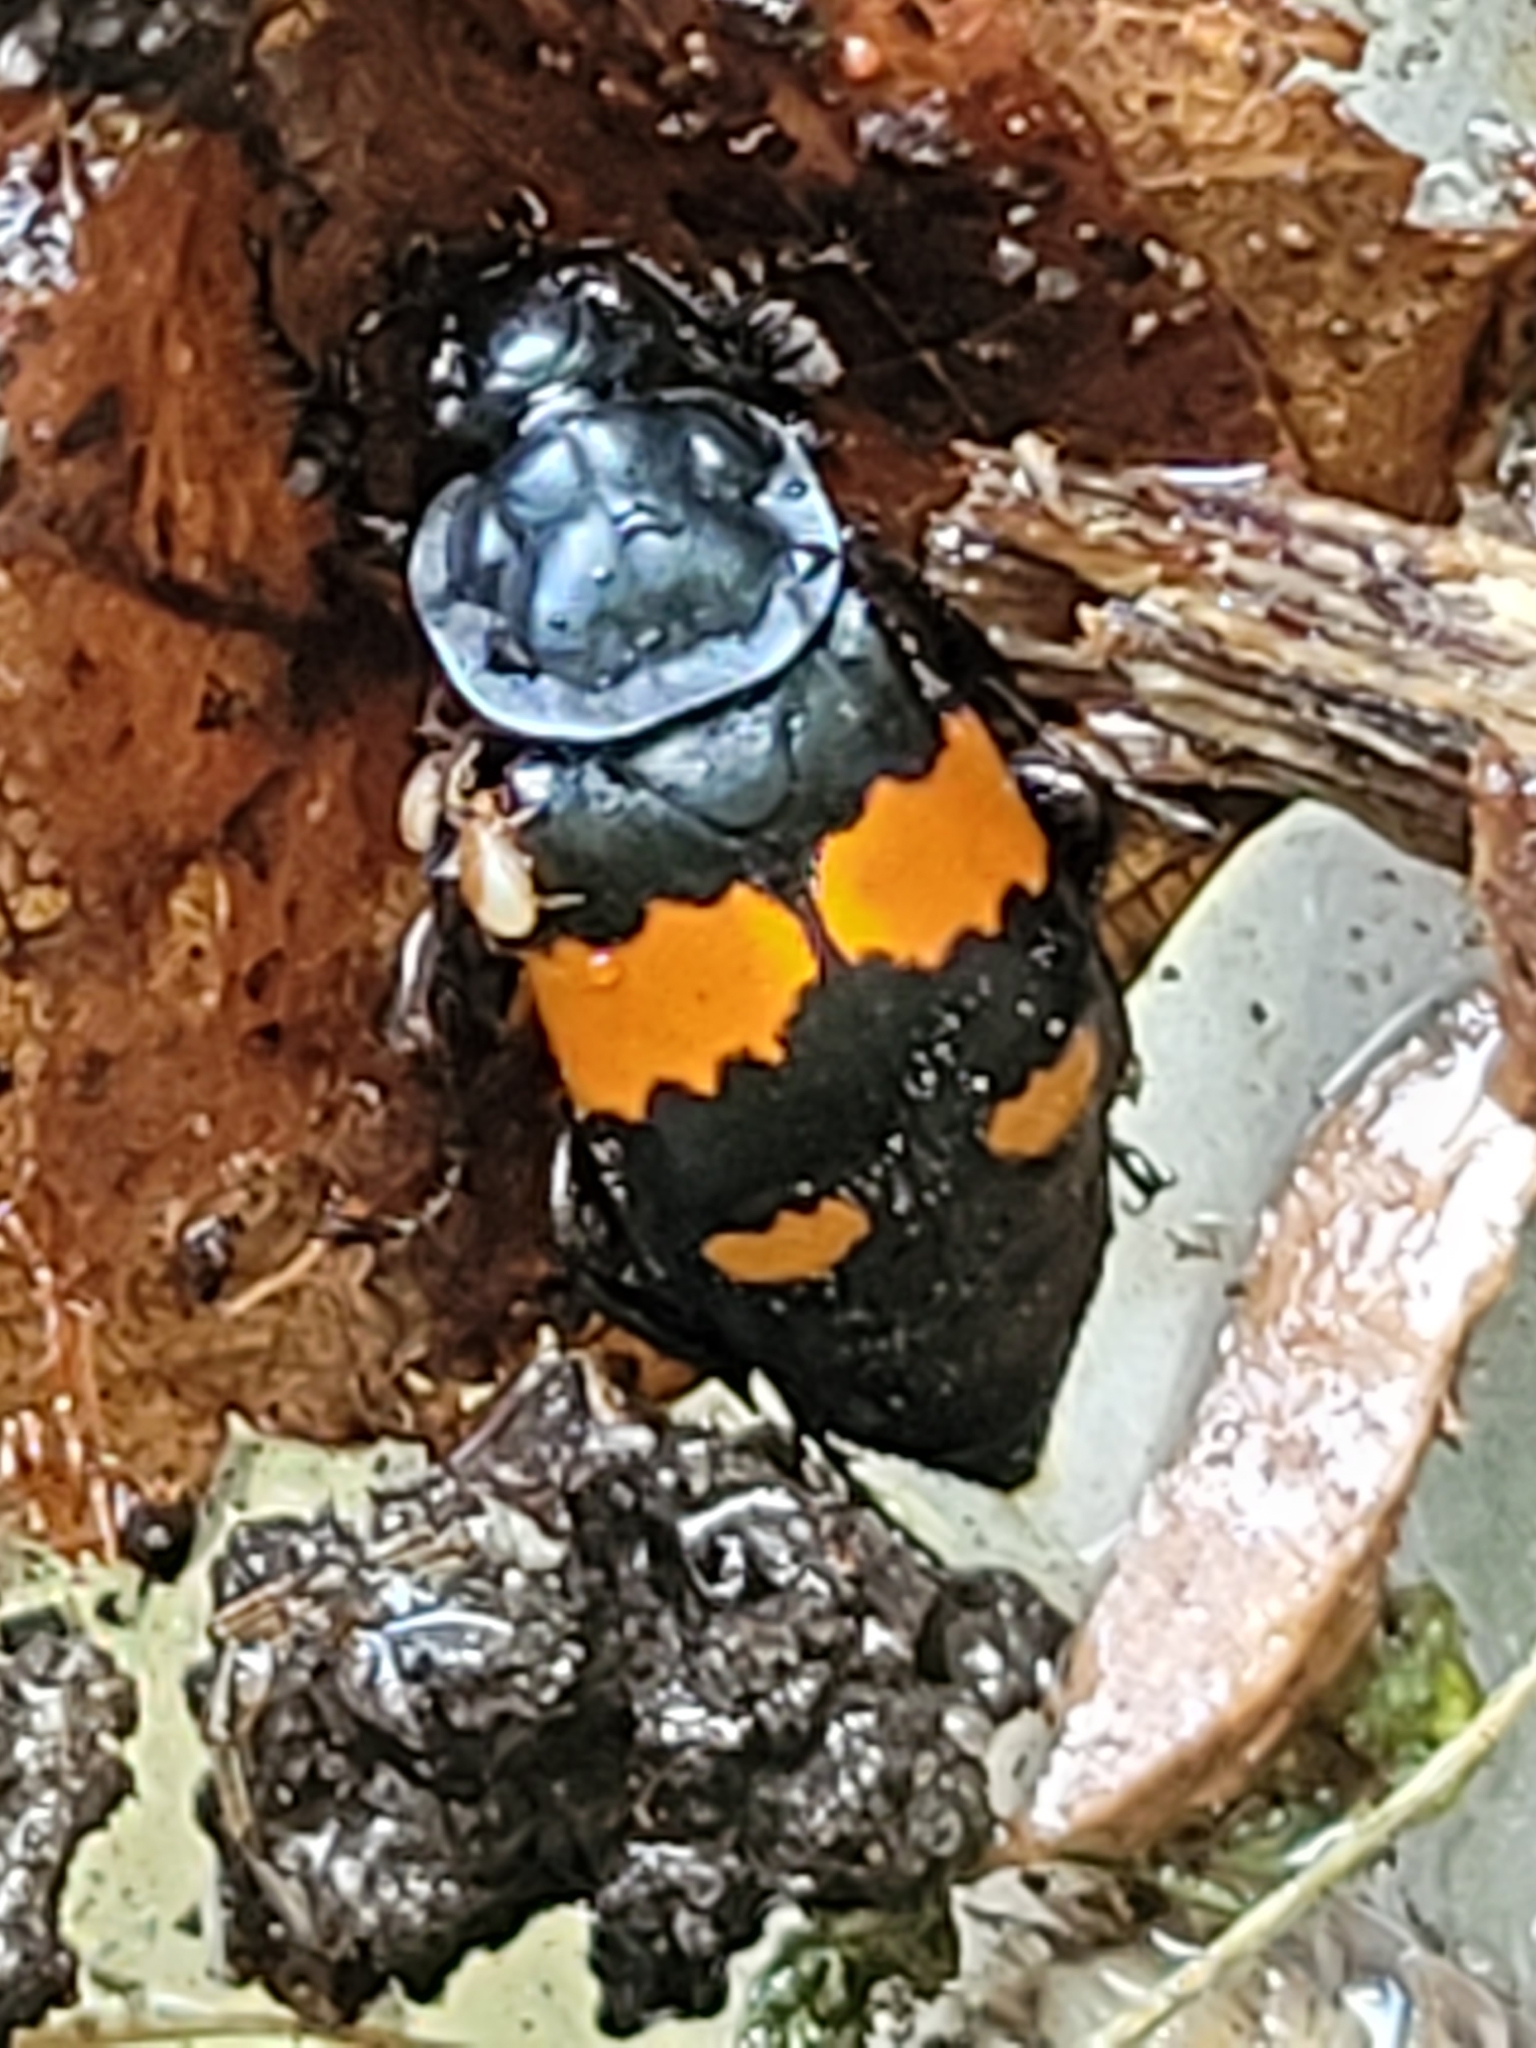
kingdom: Animalia
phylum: Arthropoda
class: Insecta
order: Coleoptera
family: Staphylinidae
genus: Nicrophorus
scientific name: Nicrophorus vespilloides
